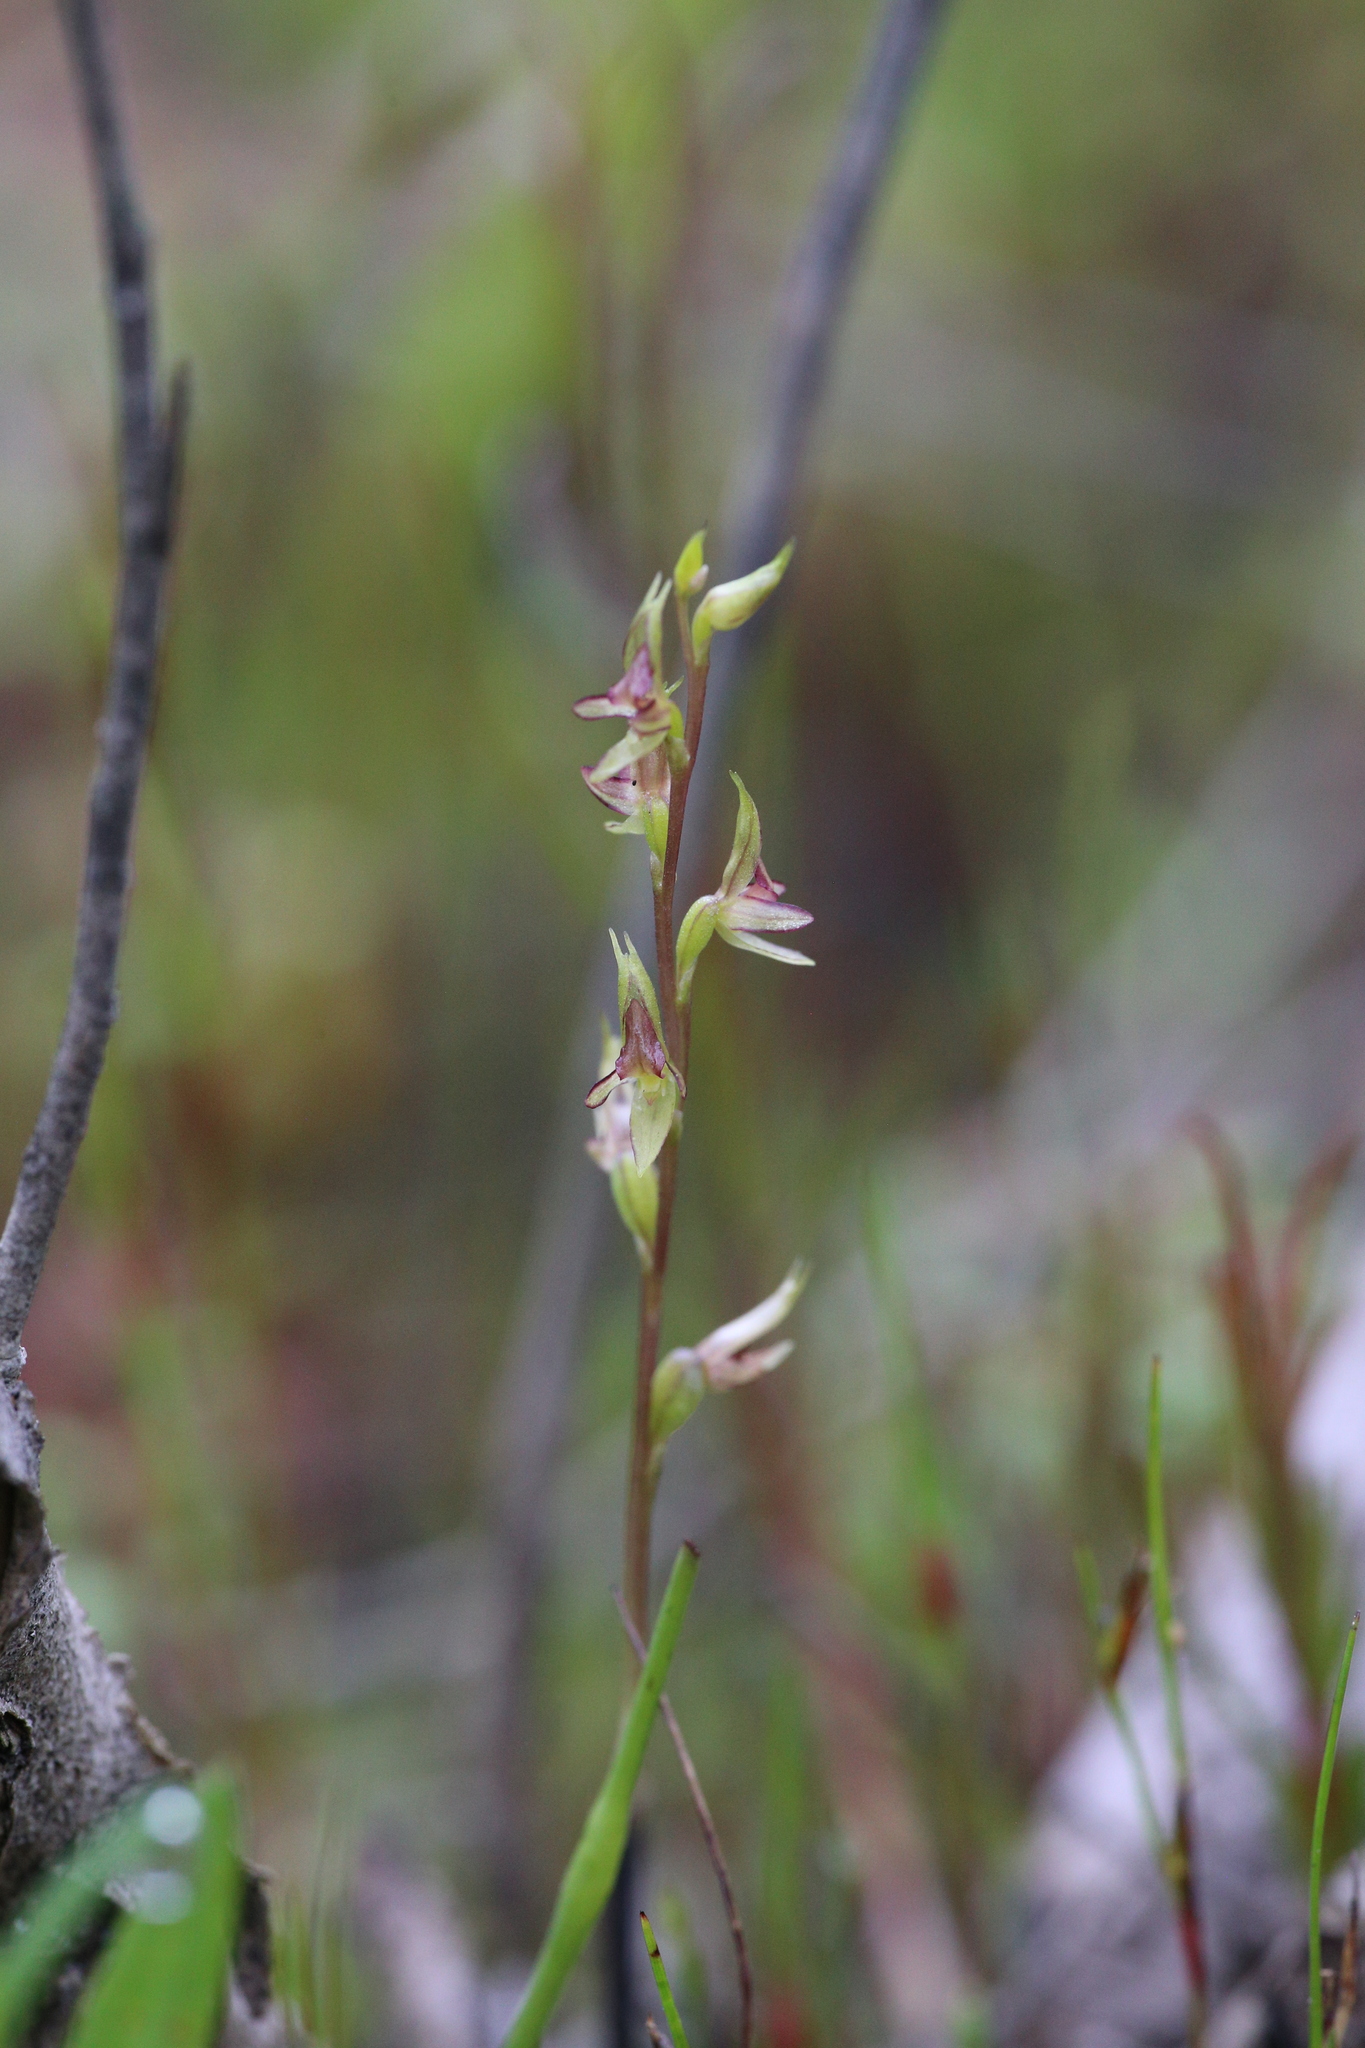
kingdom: Plantae
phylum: Tracheophyta
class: Liliopsida
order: Asparagales
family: Orchidaceae
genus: Prasophyllum
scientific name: Prasophyllum macrostachyum
